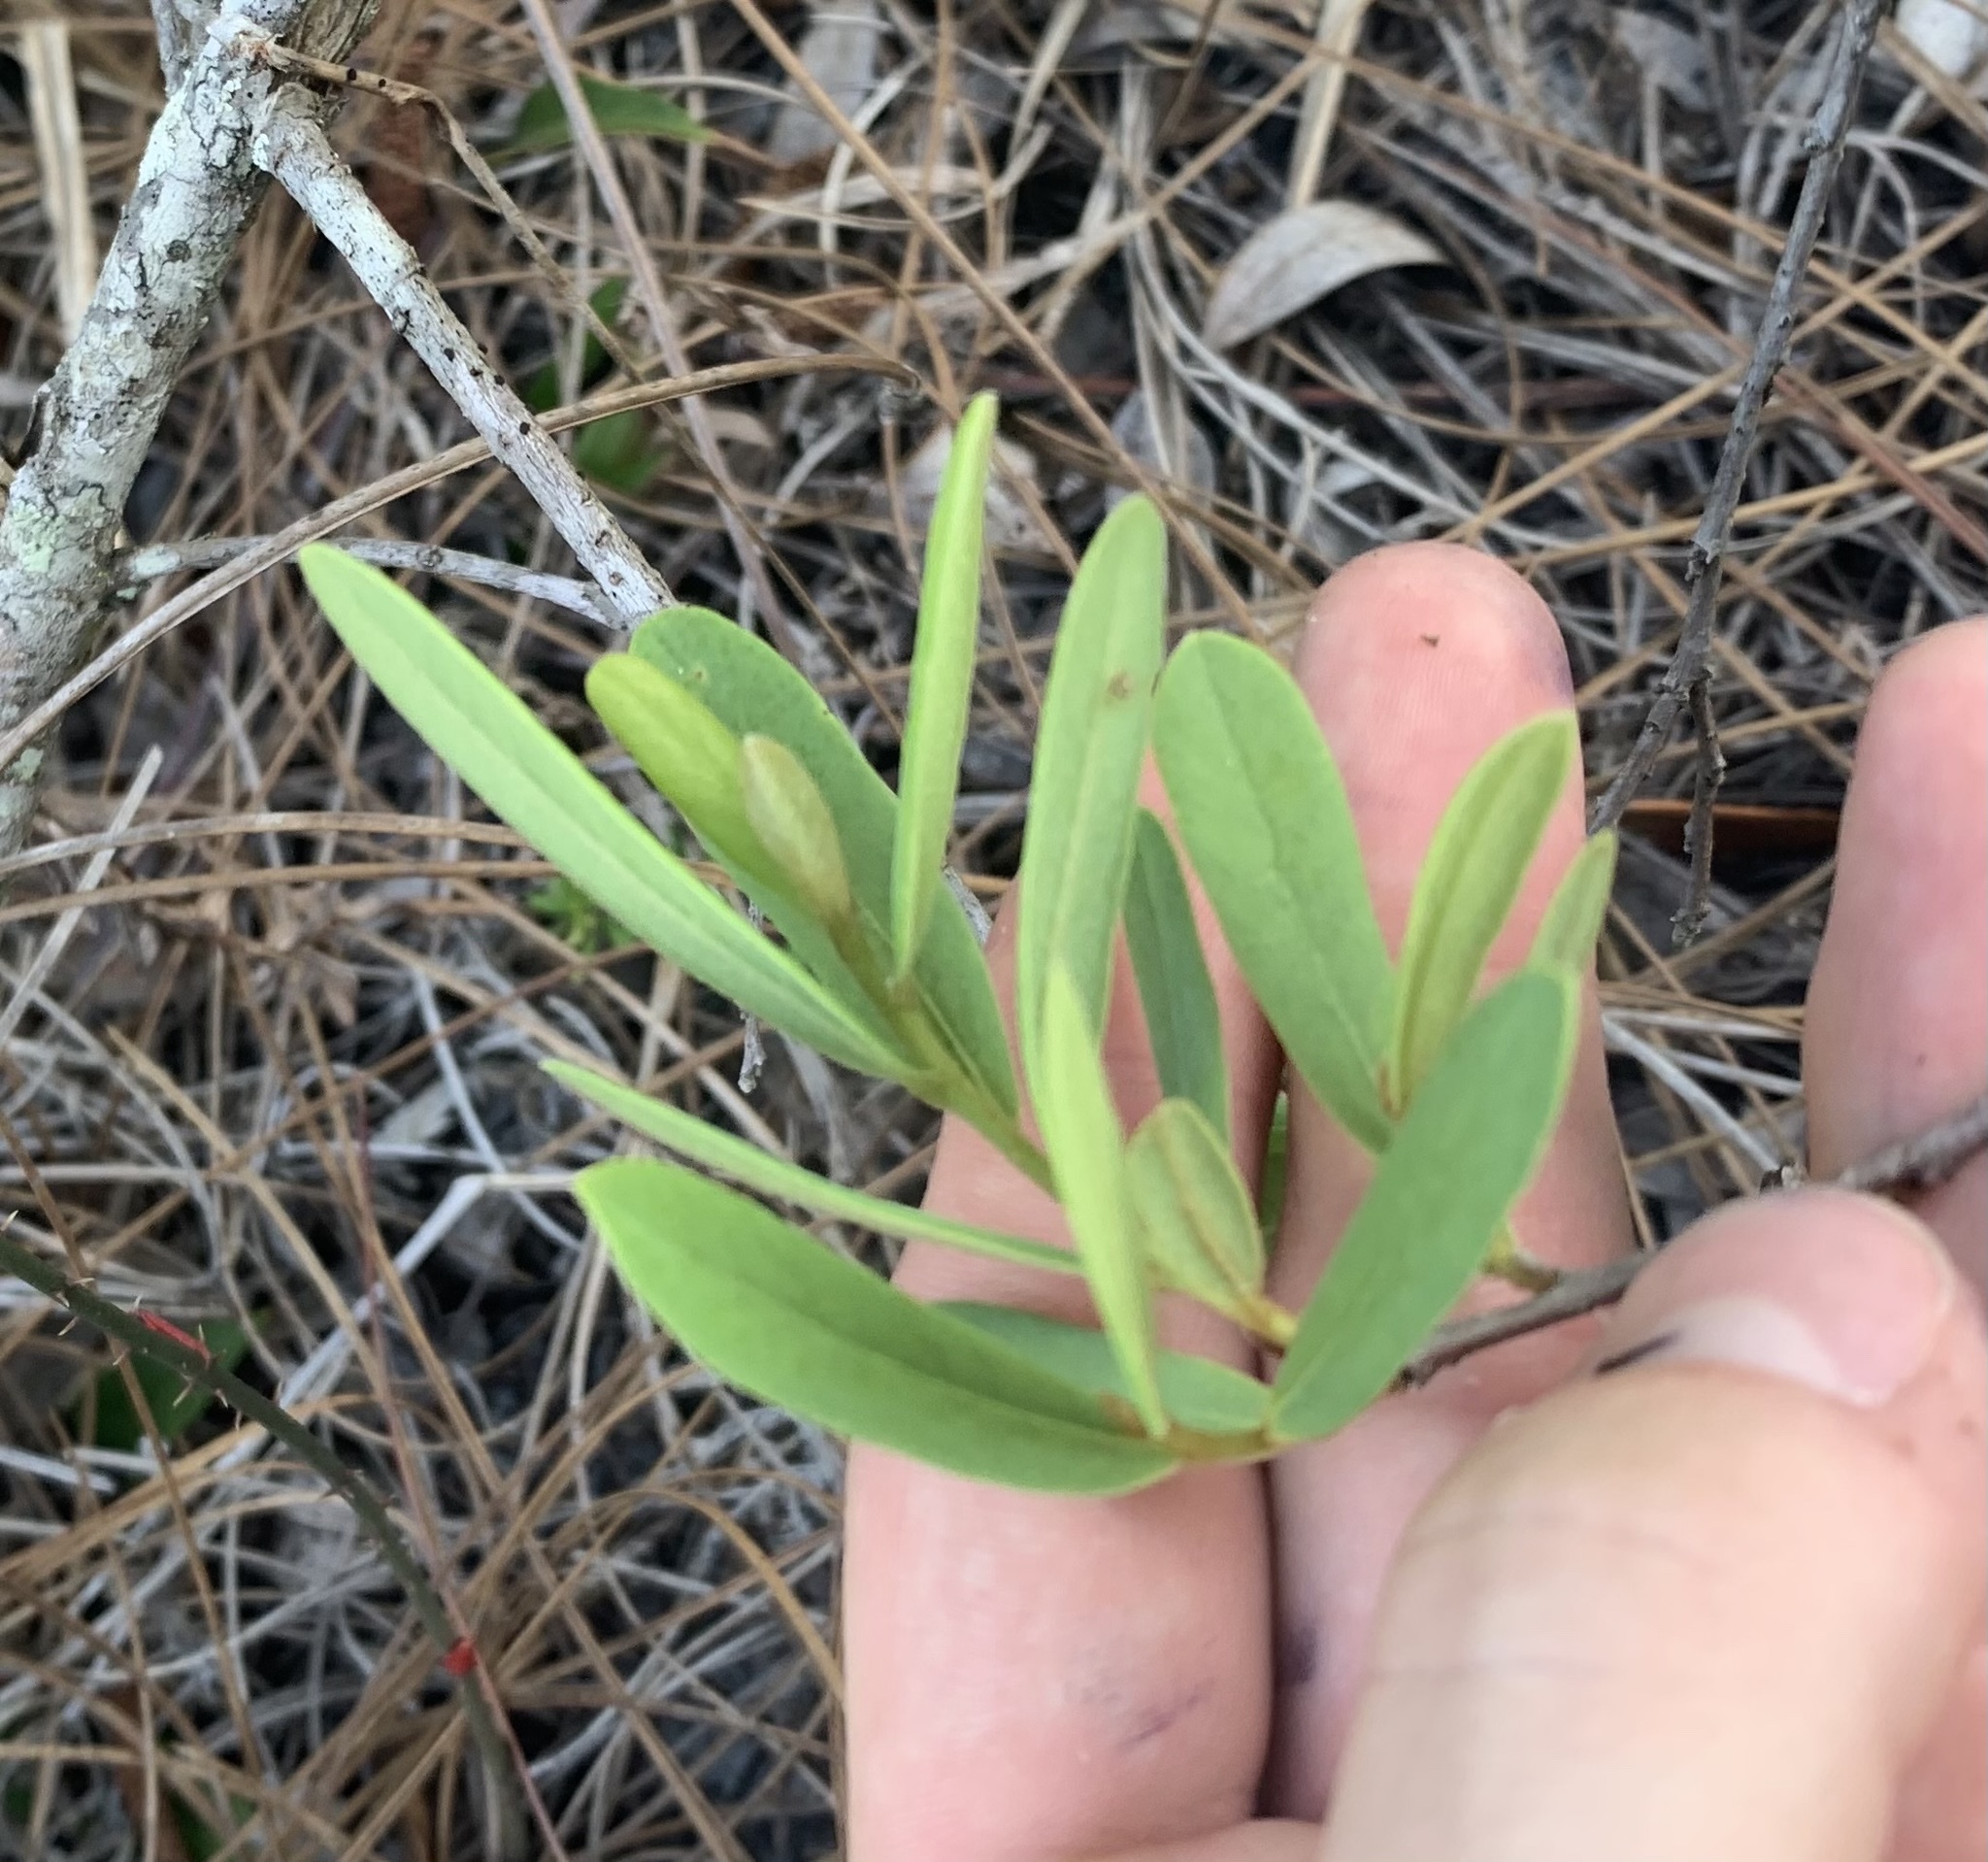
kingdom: Plantae
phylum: Tracheophyta
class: Magnoliopsida
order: Magnoliales
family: Annonaceae
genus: Asimina
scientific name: Asimina reticulata
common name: Flag pawpaw
